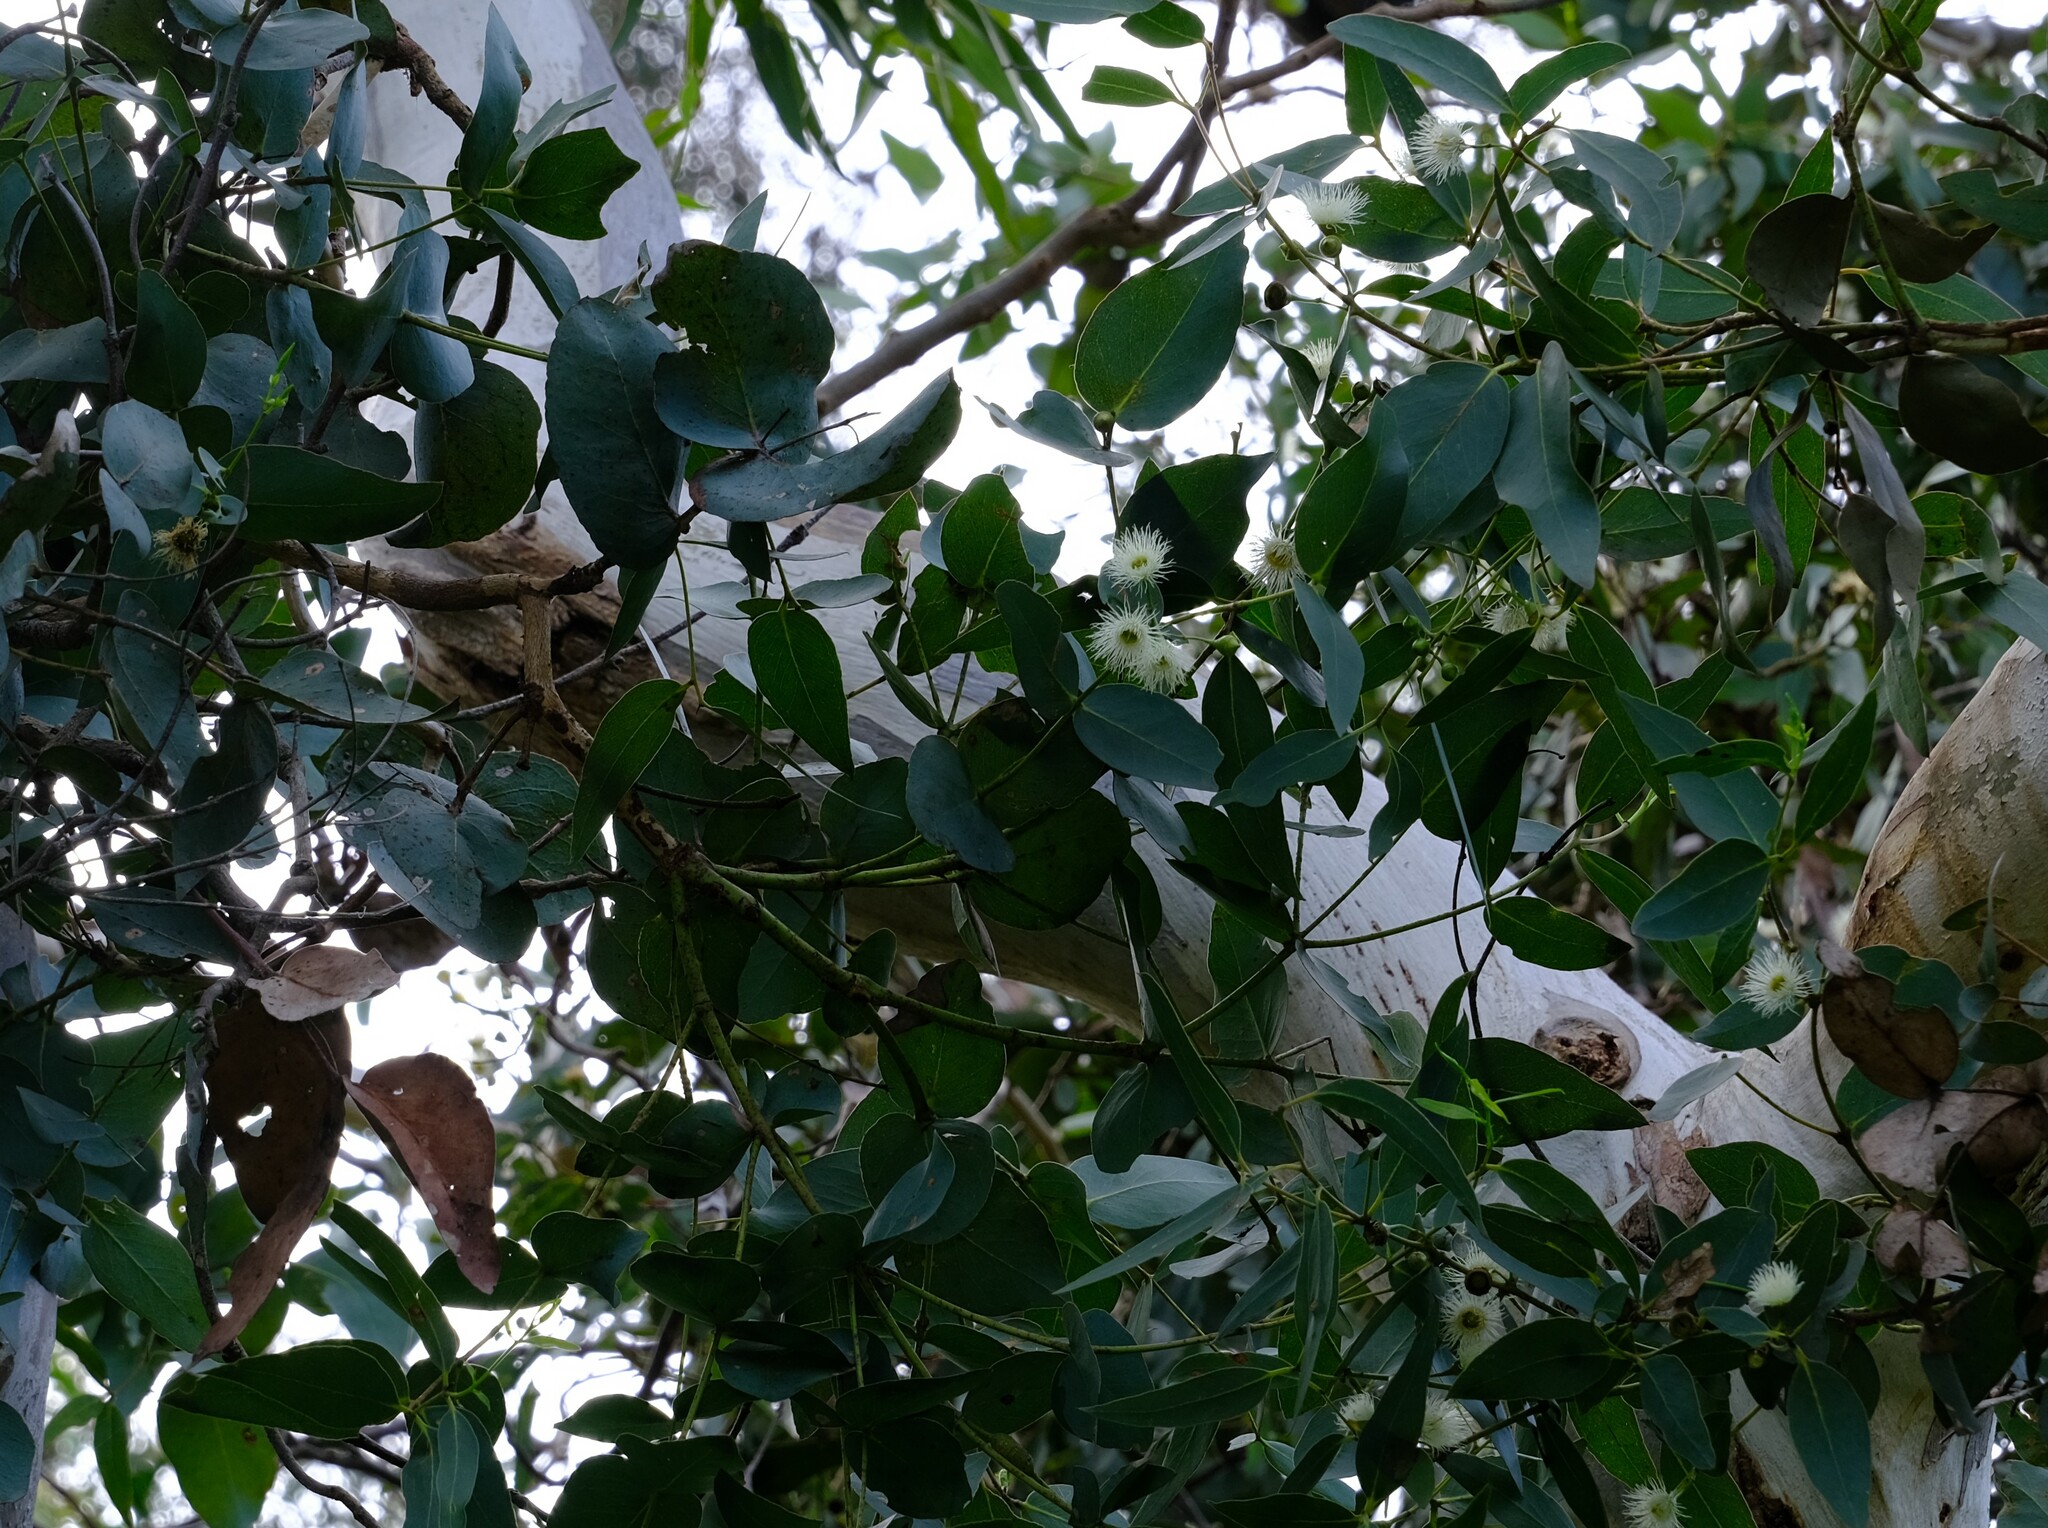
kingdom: Plantae
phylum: Tracheophyta
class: Magnoliopsida
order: Myrtales
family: Myrtaceae
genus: Eucalyptus
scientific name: Eucalyptus leucoxylon
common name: Blue gum
